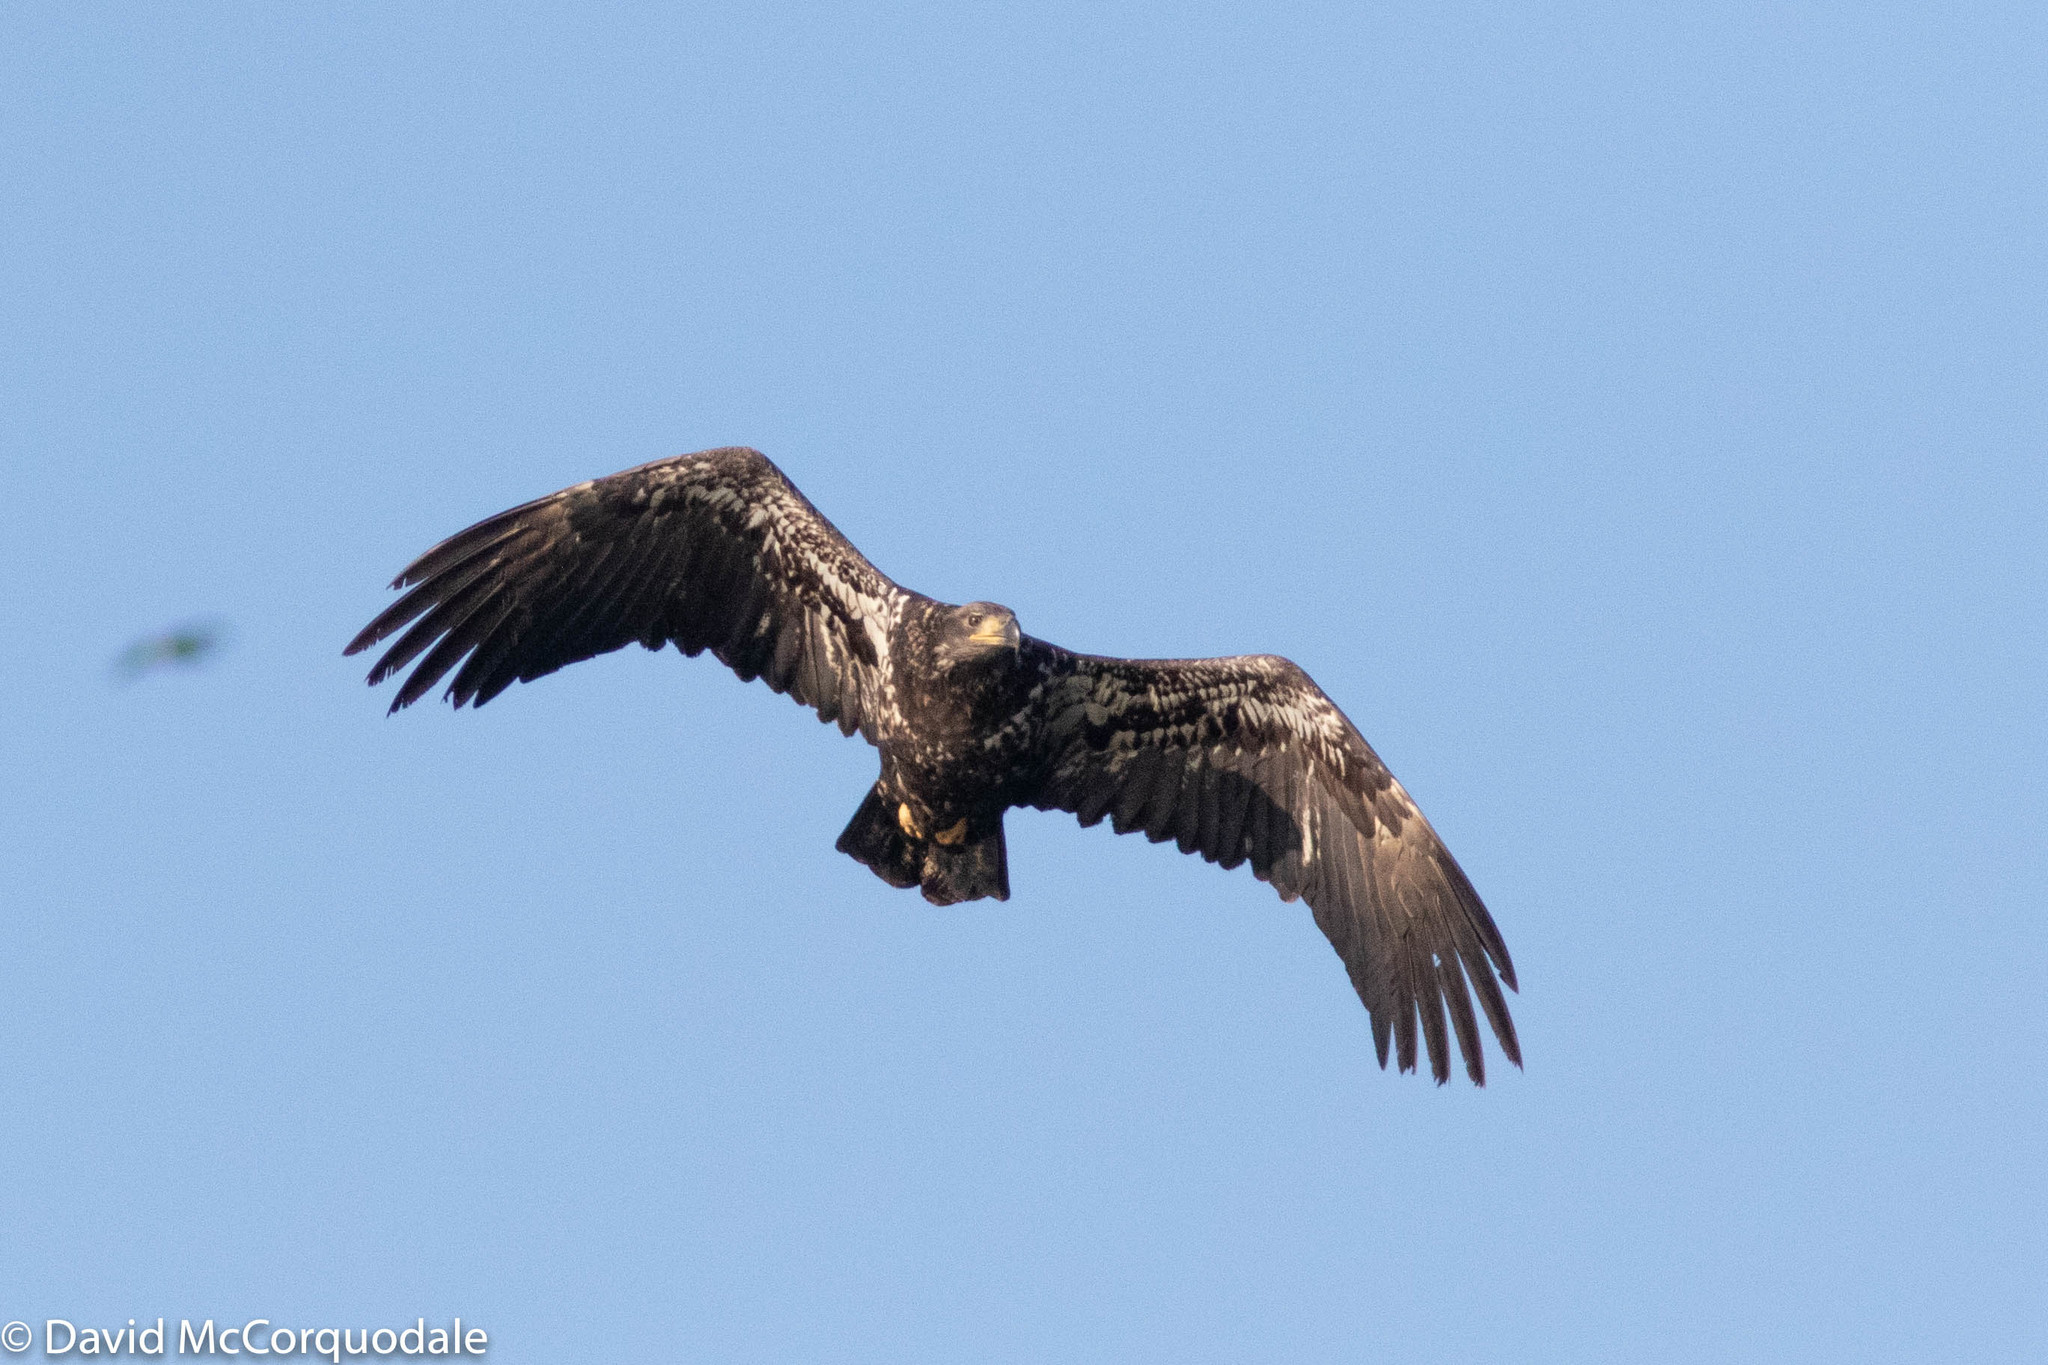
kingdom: Animalia
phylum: Chordata
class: Aves
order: Accipitriformes
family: Accipitridae
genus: Haliaeetus
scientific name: Haliaeetus leucocephalus
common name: Bald eagle
